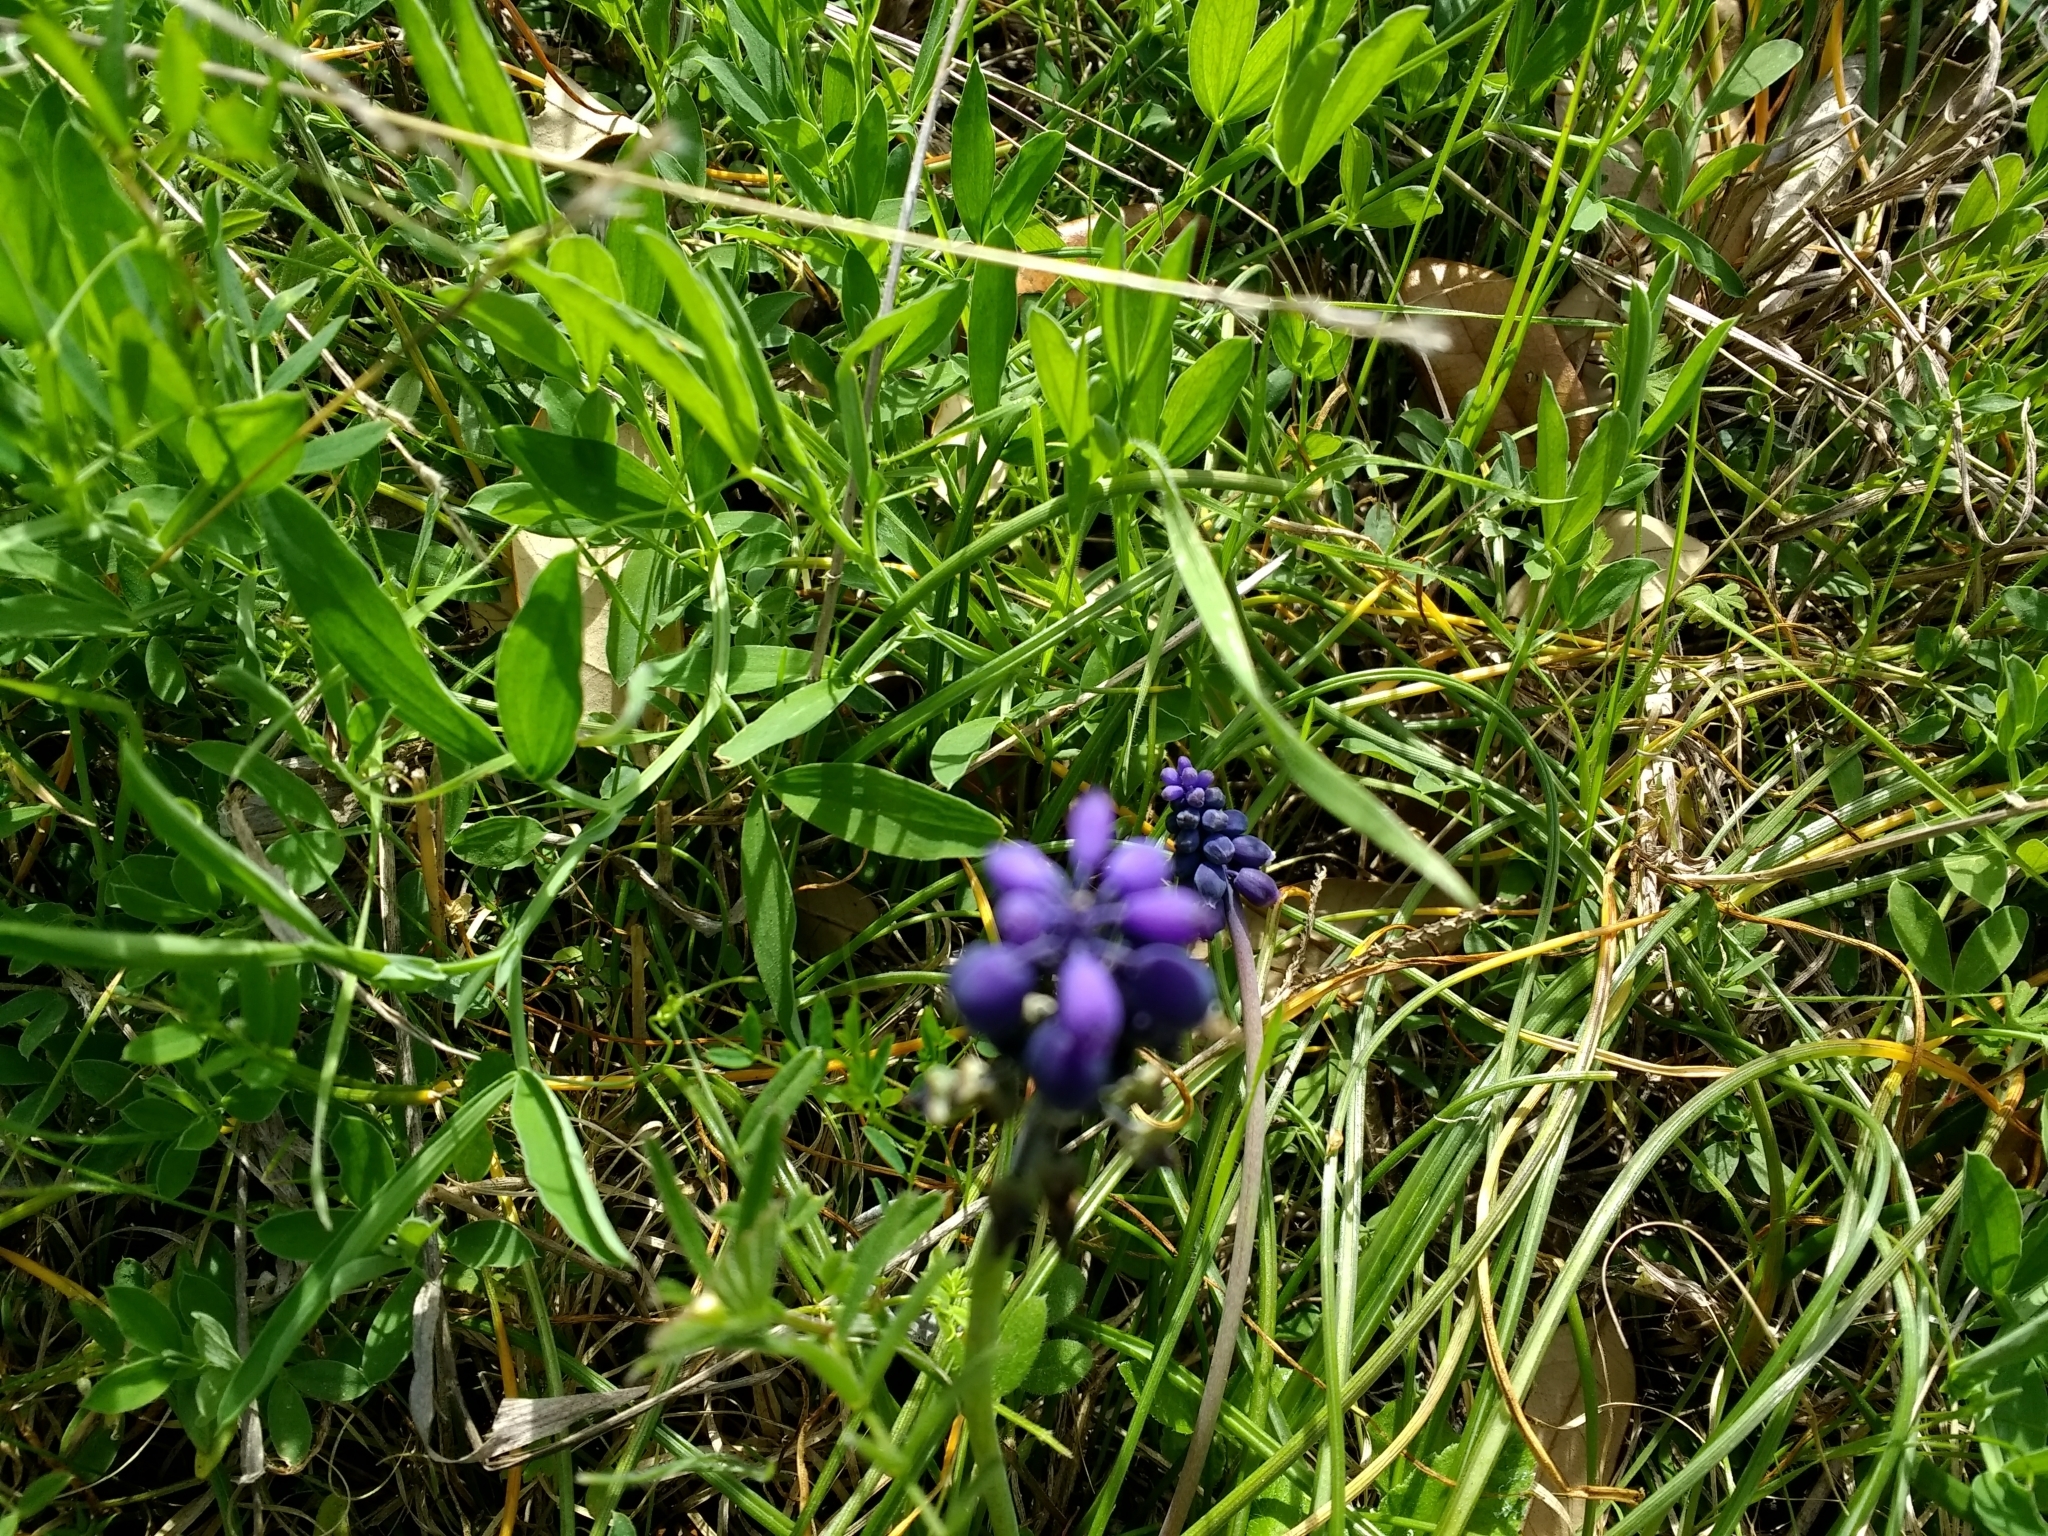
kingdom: Plantae
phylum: Tracheophyta
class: Liliopsida
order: Asparagales
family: Asparagaceae
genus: Muscari
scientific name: Muscari neglectum
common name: Grape-hyacinth
